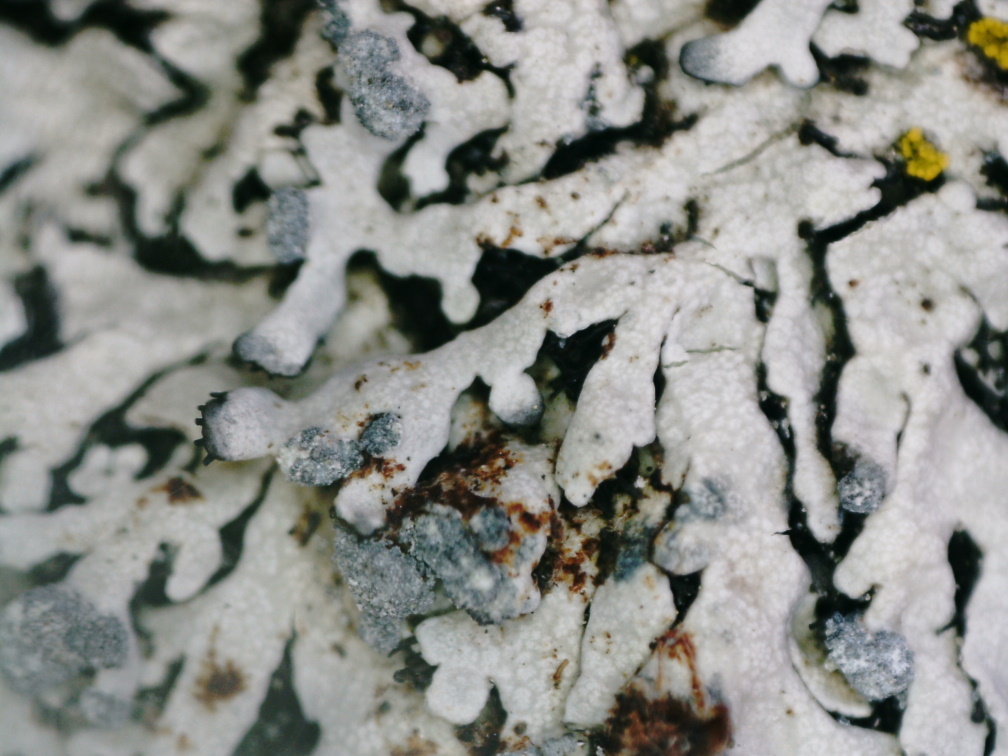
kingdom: Fungi
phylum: Ascomycota
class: Lecanoromycetes
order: Caliciales
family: Physciaceae
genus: Physcia
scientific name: Physcia caesia
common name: Blue-gray rosette lichen
